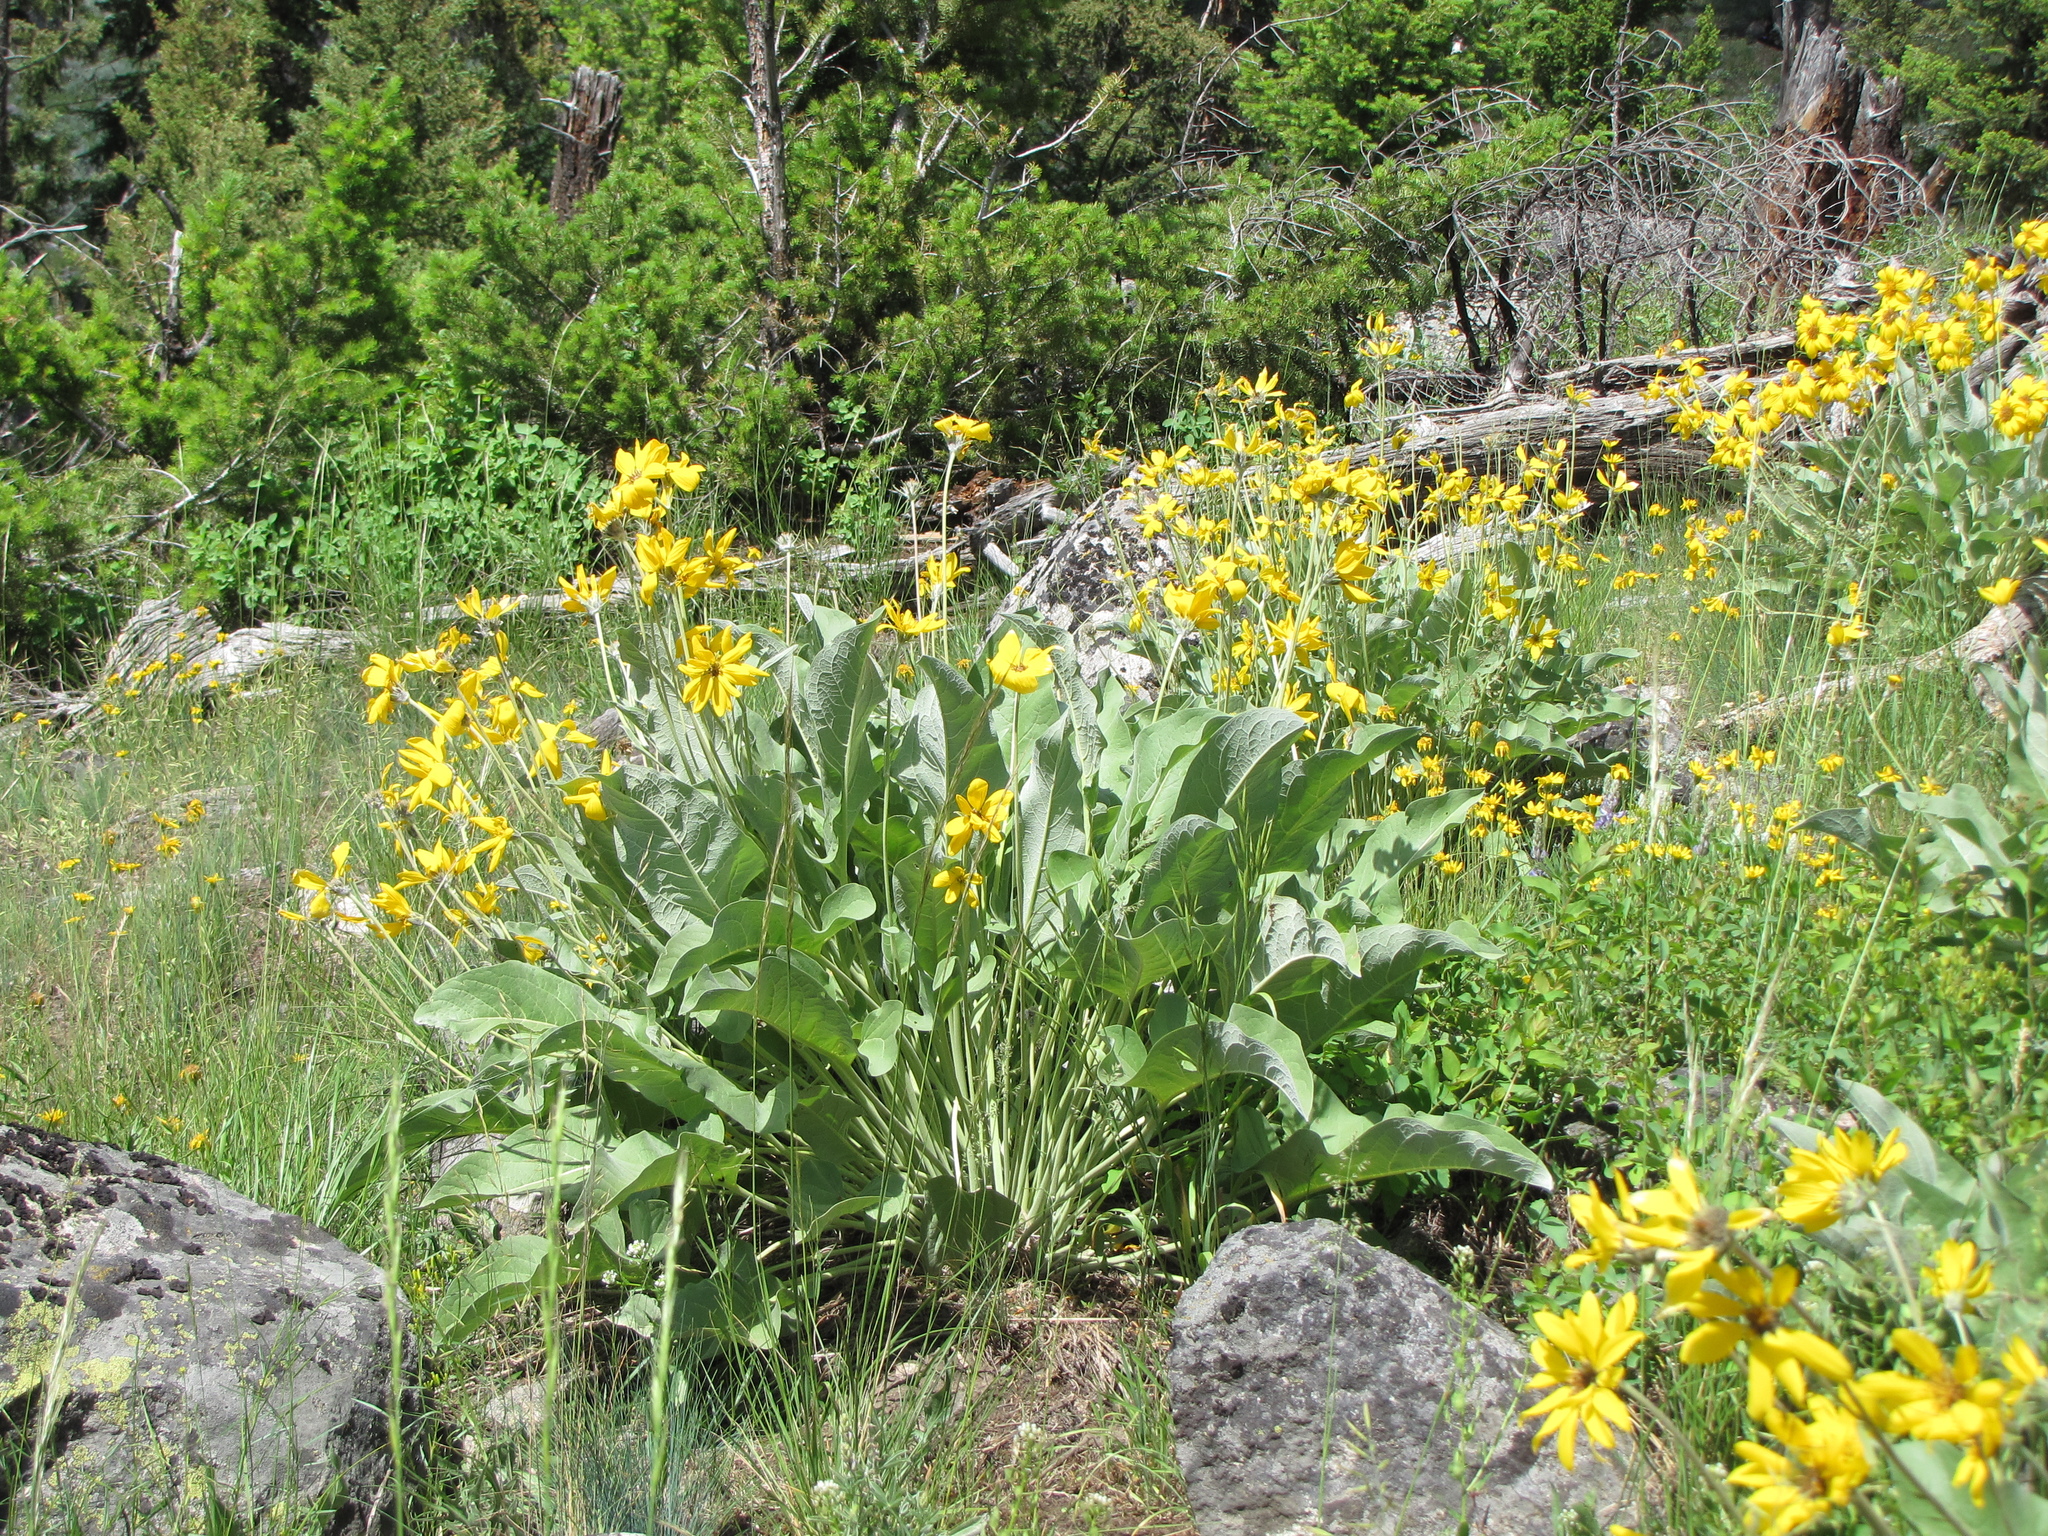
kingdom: Plantae
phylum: Tracheophyta
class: Magnoliopsida
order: Asterales
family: Asteraceae
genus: Wyethia
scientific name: Wyethia sagittata
